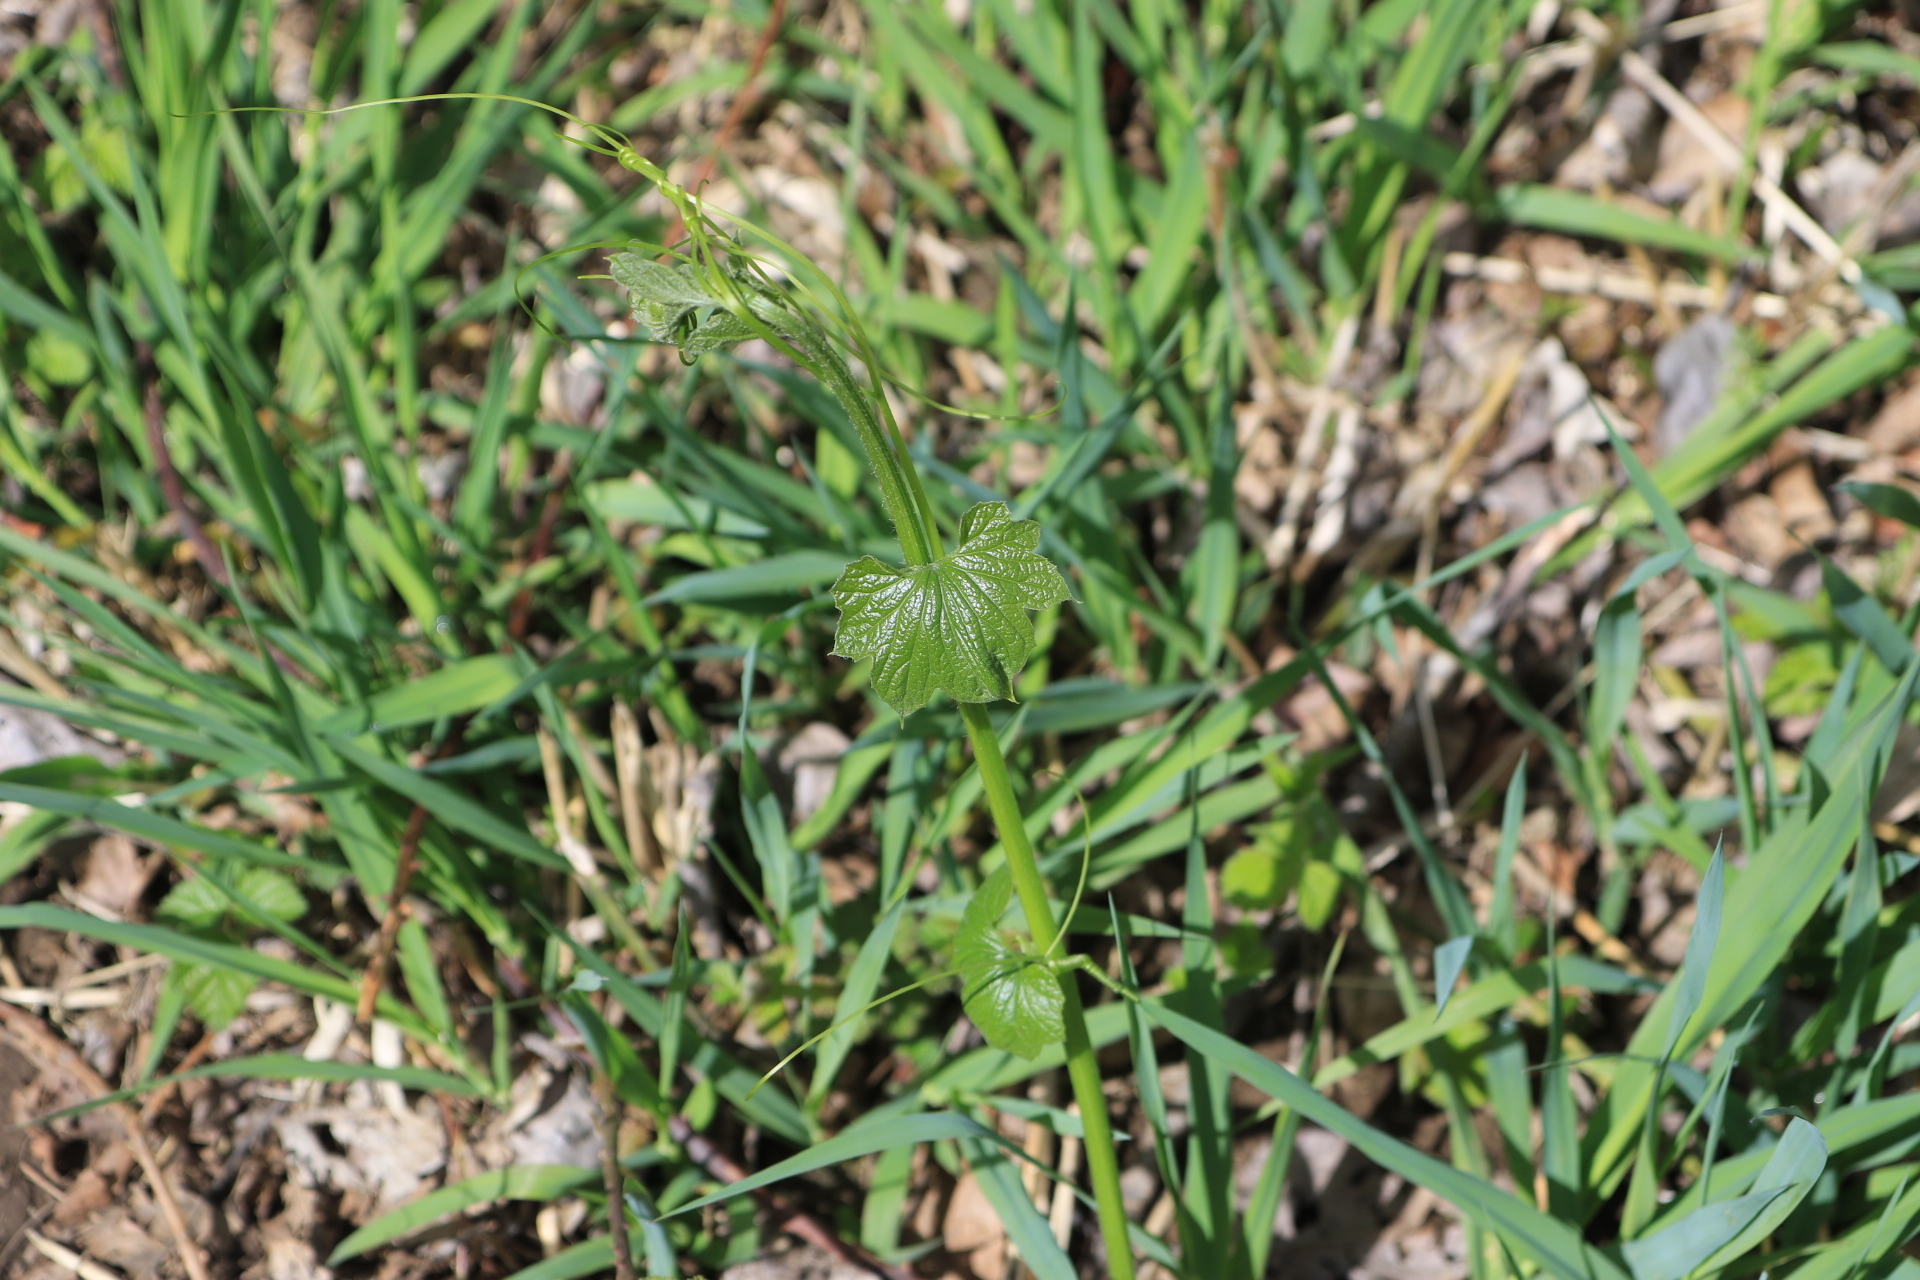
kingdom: Plantae
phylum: Tracheophyta
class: Magnoliopsida
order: Cucurbitales
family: Cucurbitaceae
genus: Marah
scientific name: Marah oregana
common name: Coastal manroot
